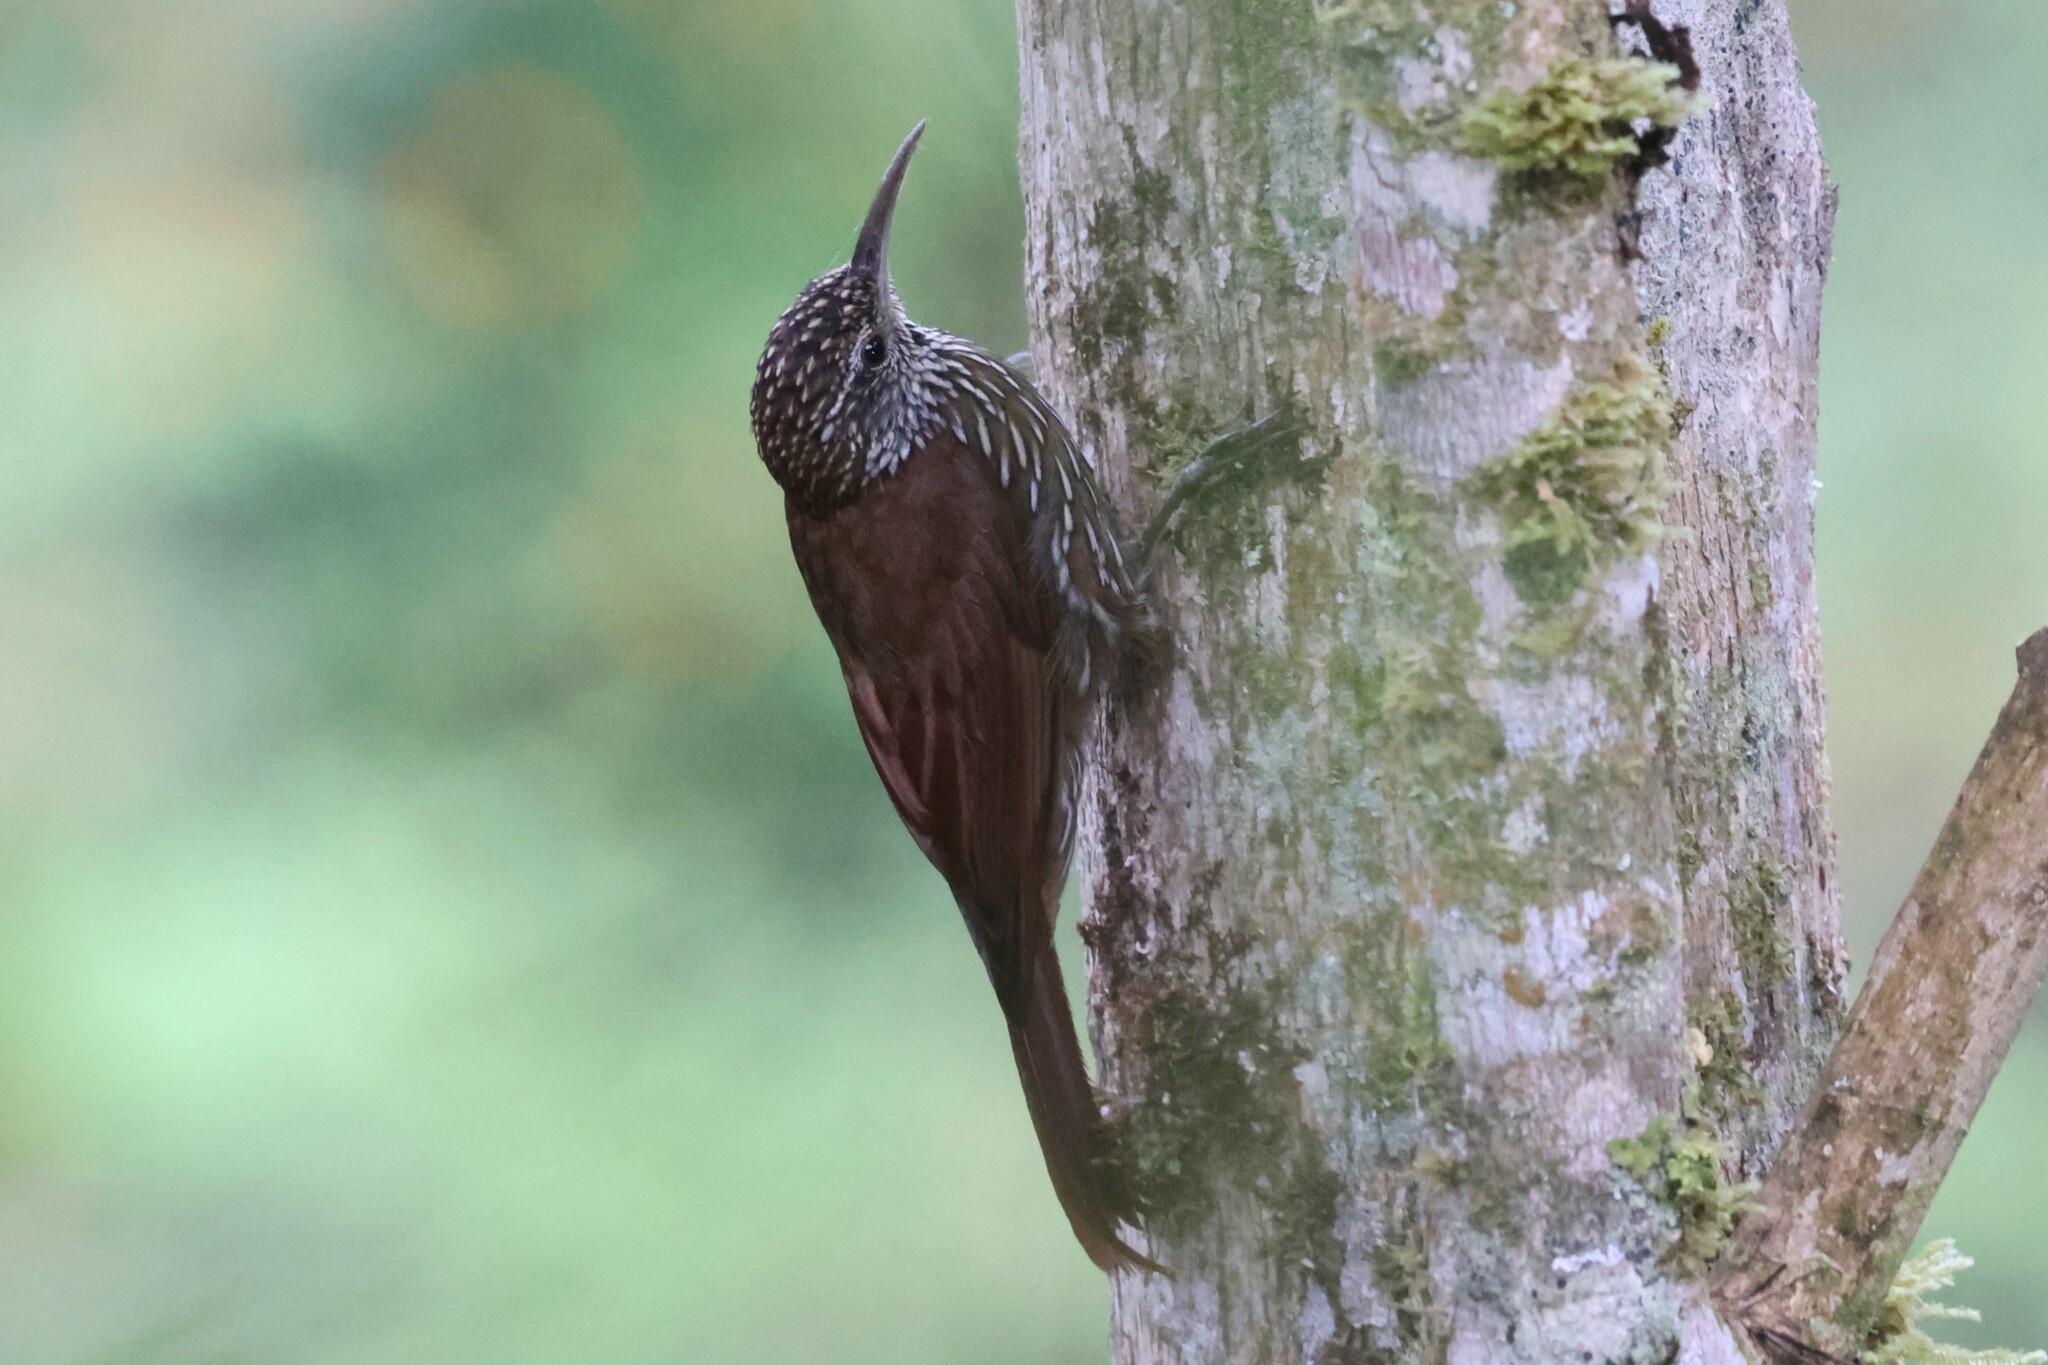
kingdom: Animalia
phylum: Chordata
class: Aves
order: Passeriformes
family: Furnariidae
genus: Lepidocolaptes
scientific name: Lepidocolaptes lacrymiger
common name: Montane woodcreeper
